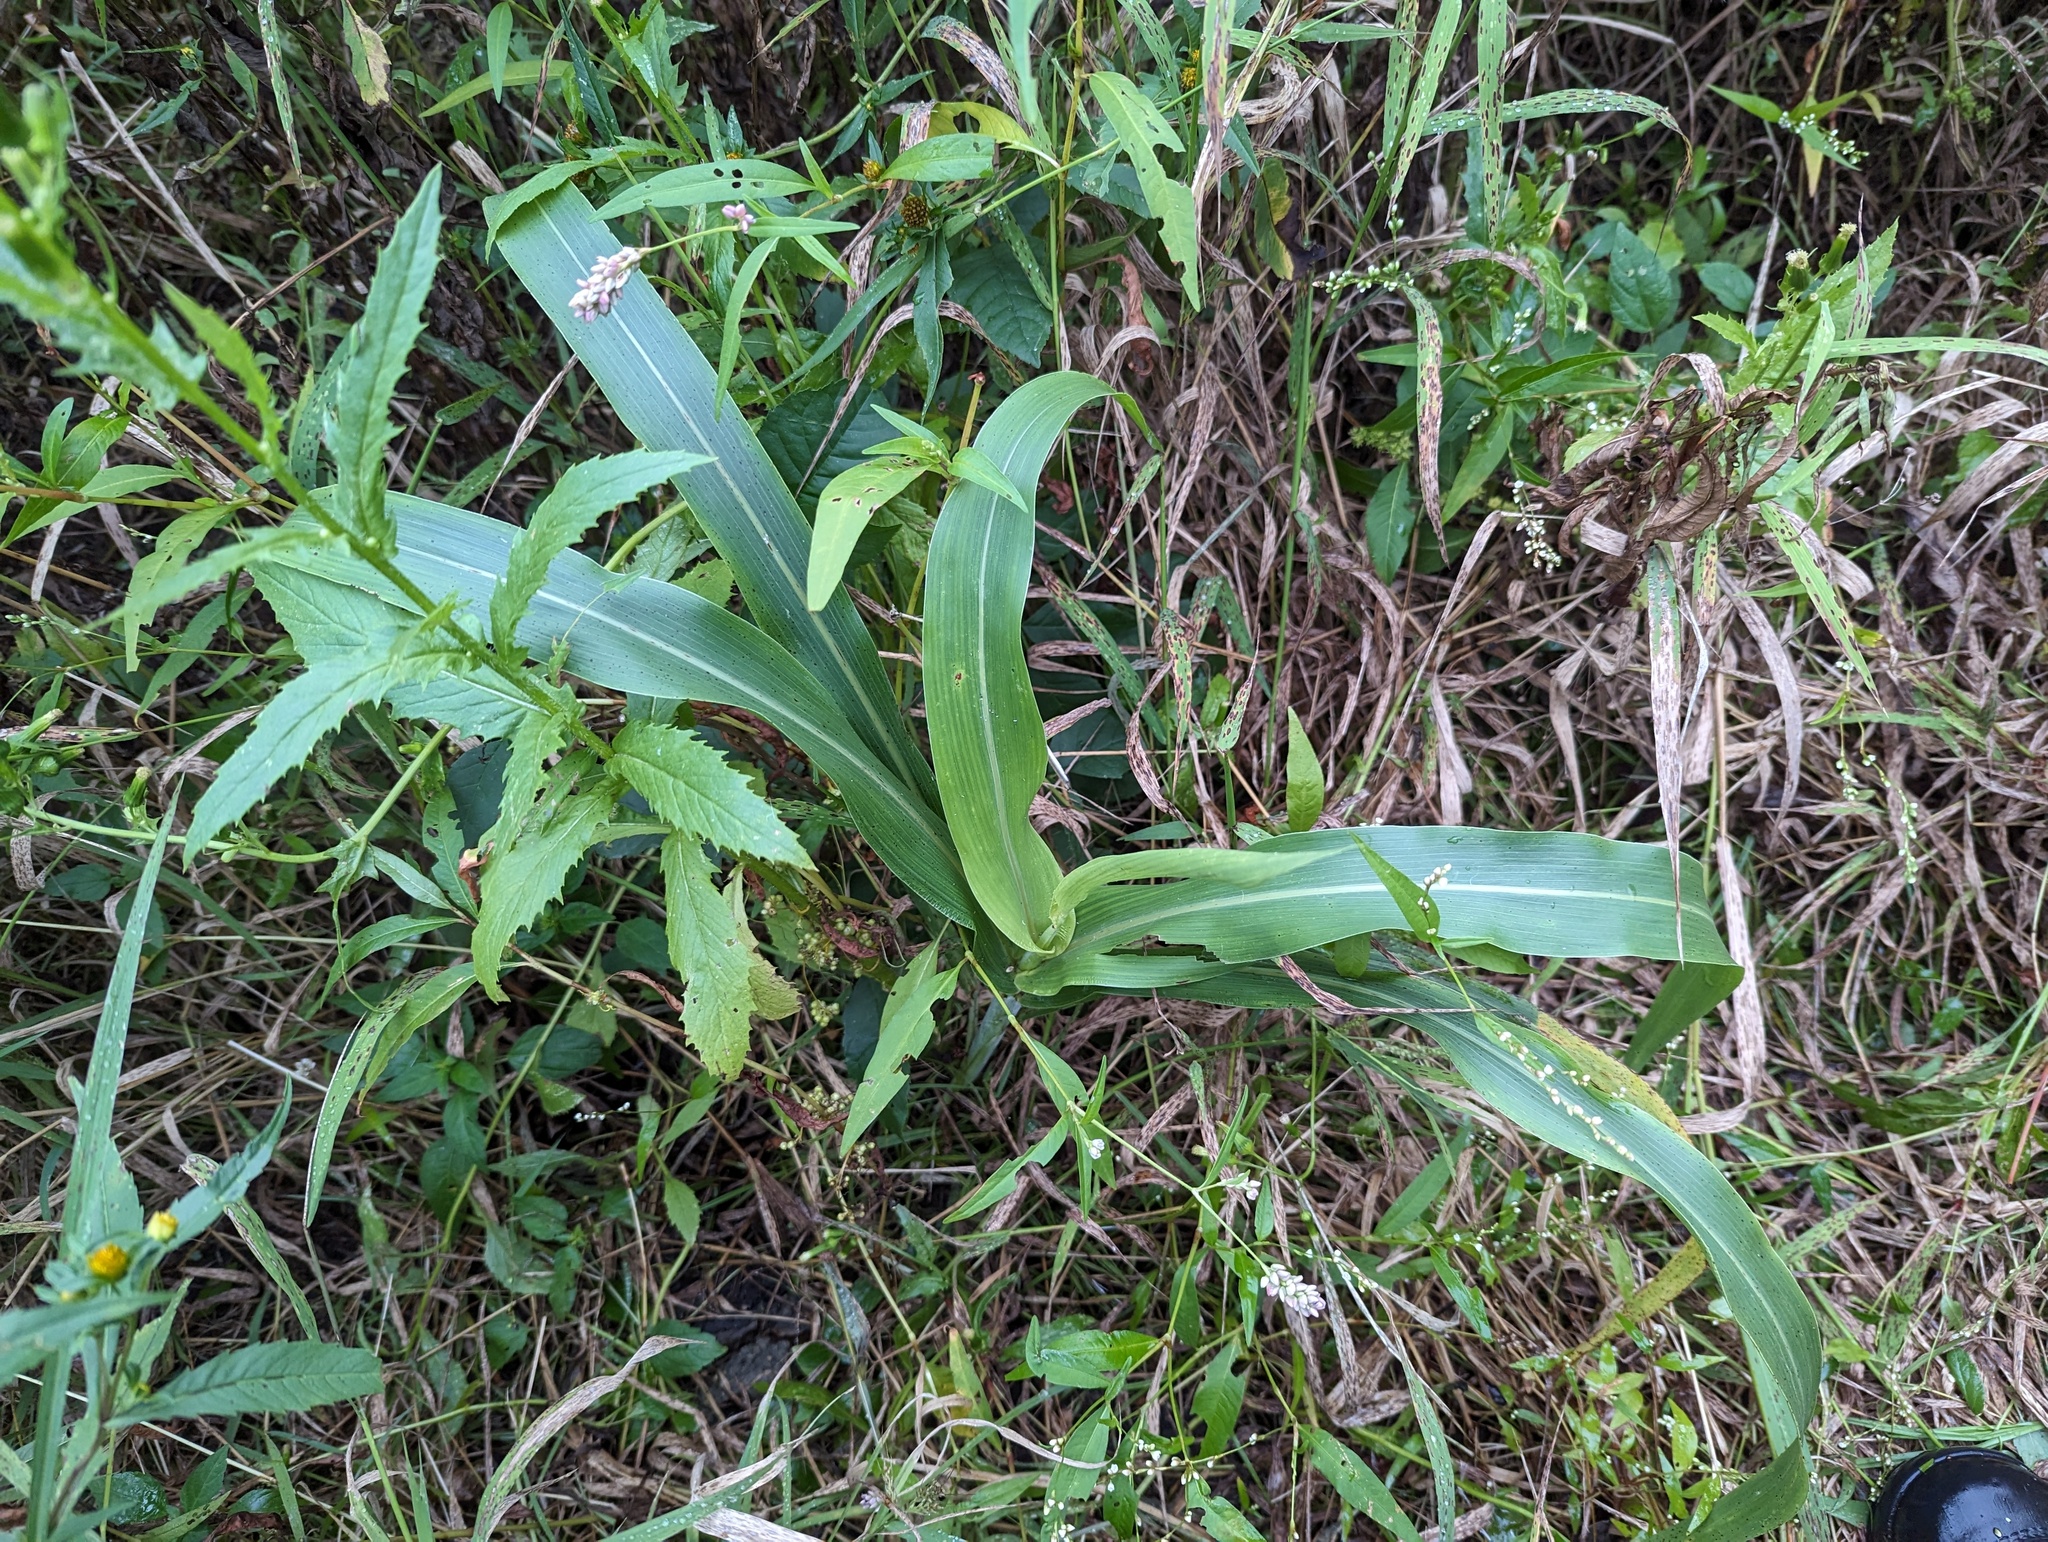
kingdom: Plantae
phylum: Tracheophyta
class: Liliopsida
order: Poales
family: Poaceae
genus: Sorghum
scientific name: Sorghum bicolor
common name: Sorghum
